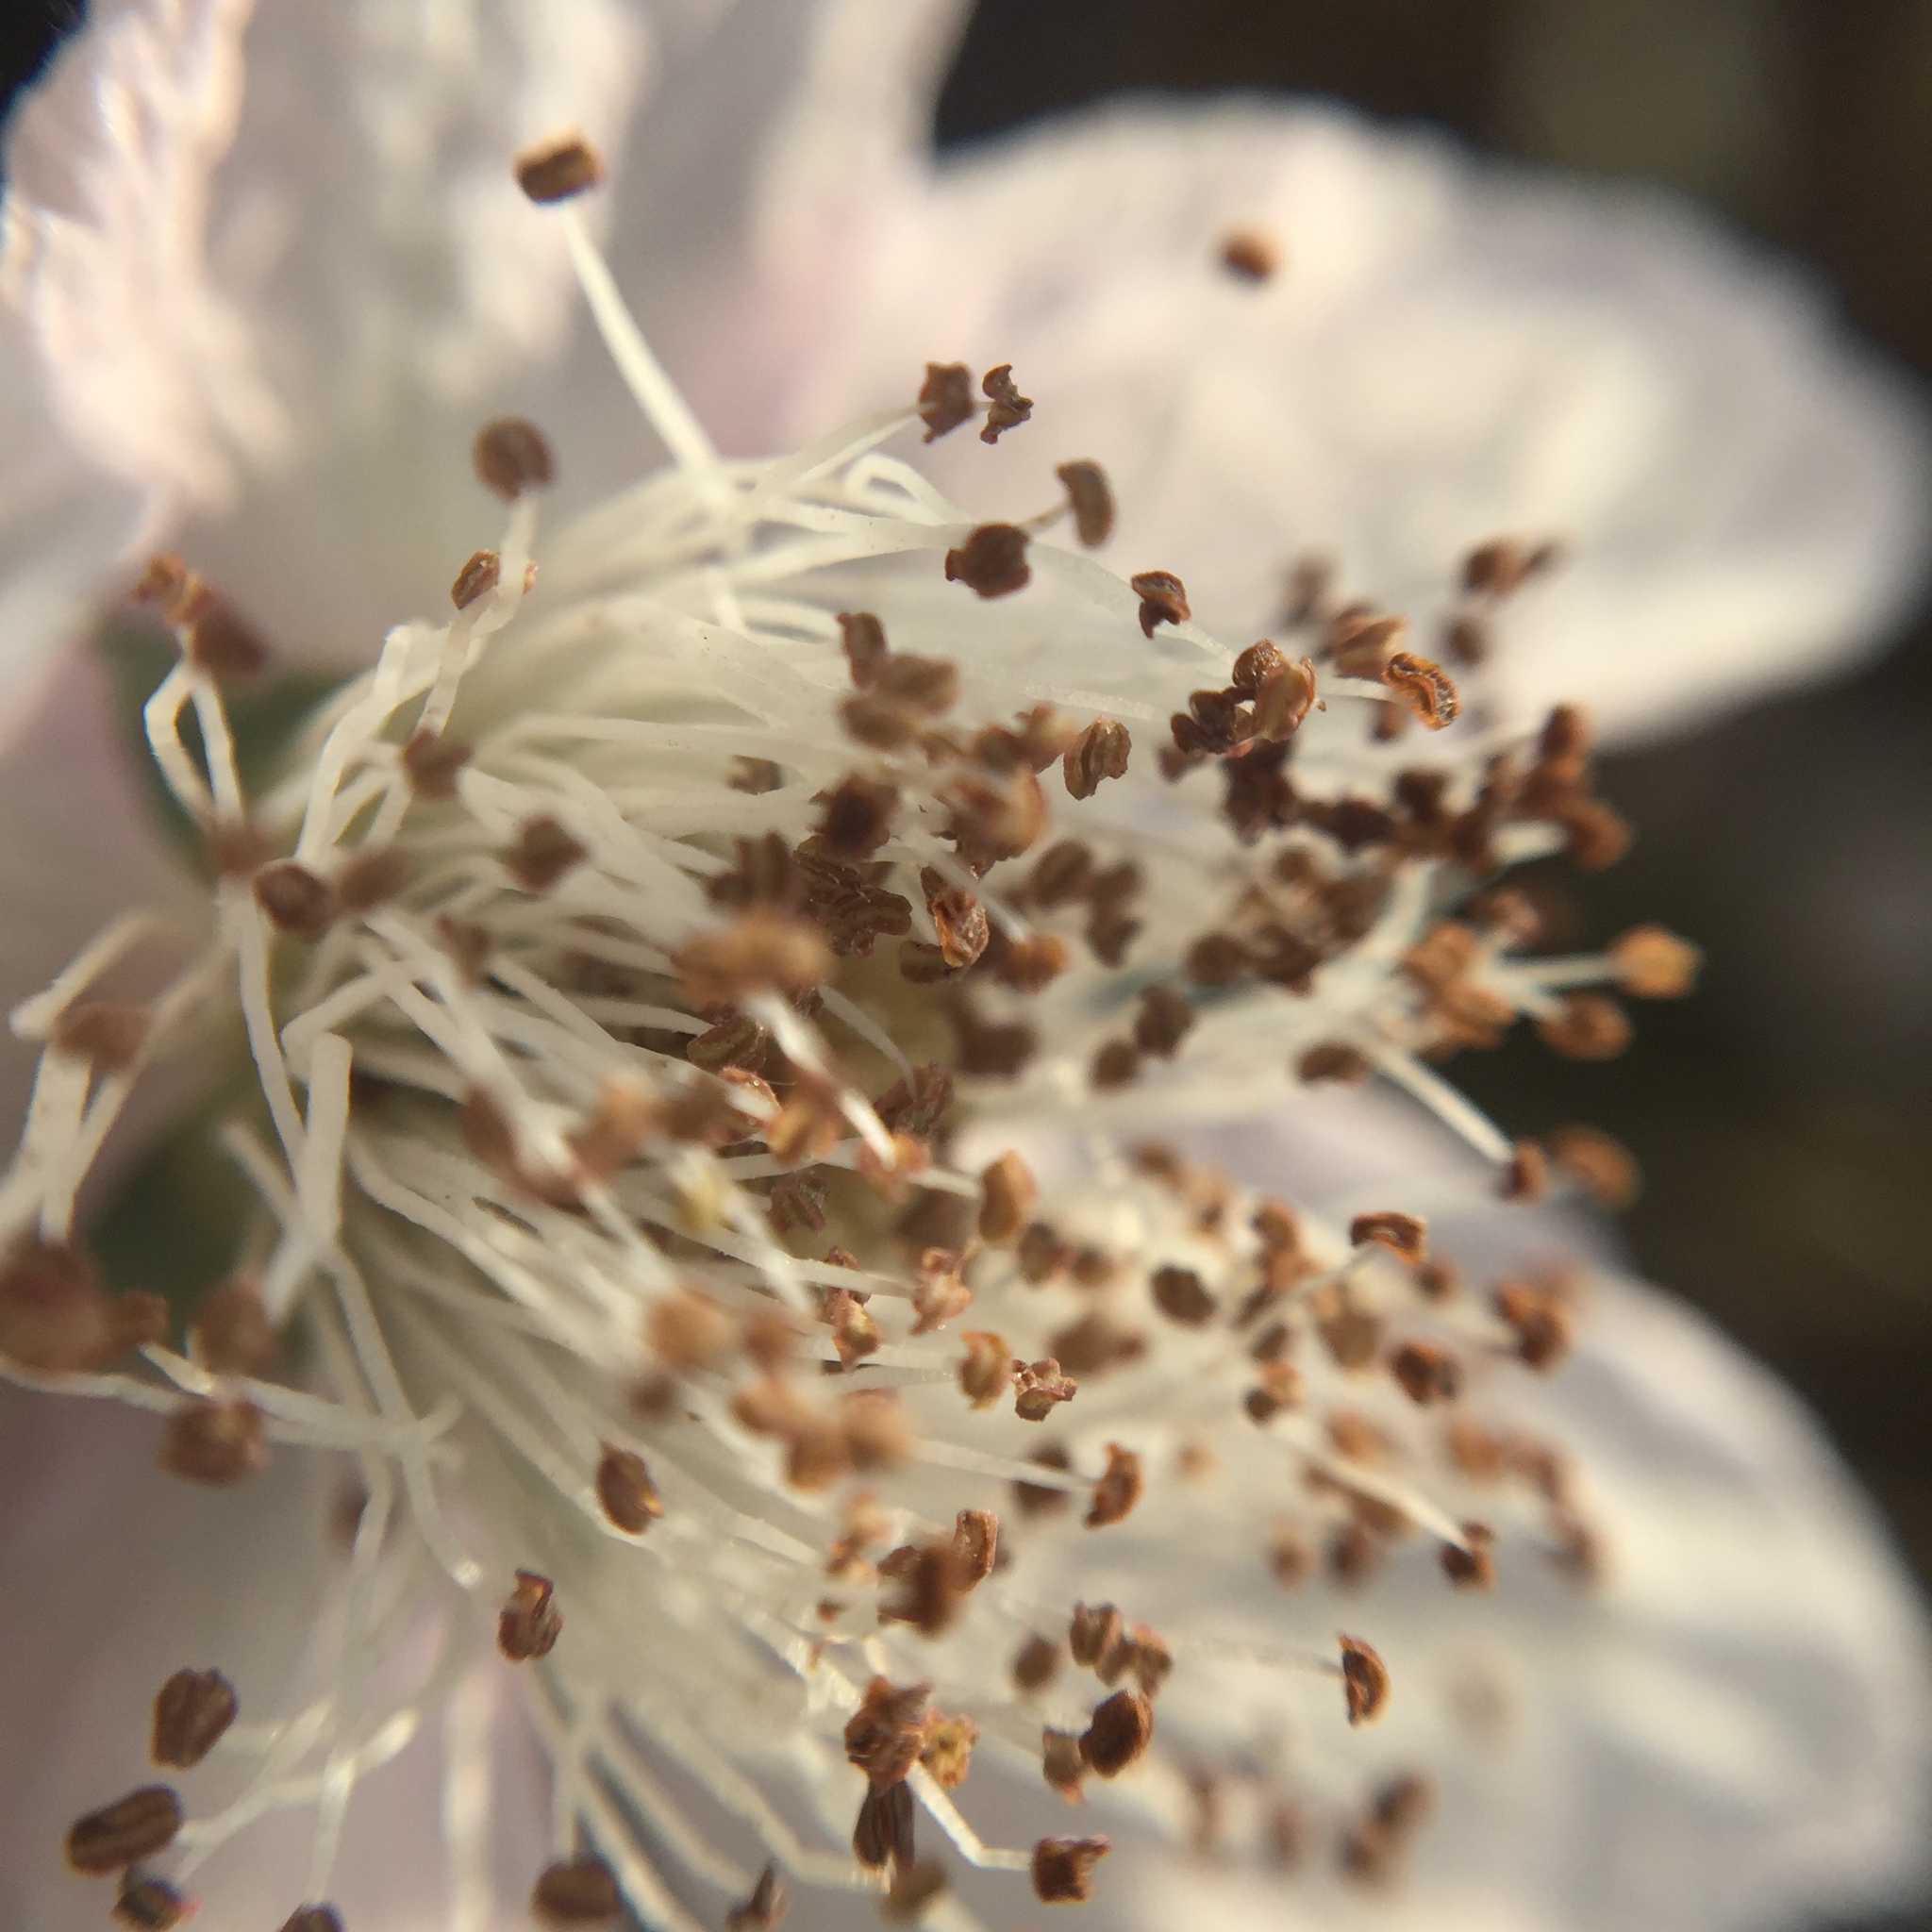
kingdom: Plantae
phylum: Tracheophyta
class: Magnoliopsida
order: Rosales
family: Rosaceae
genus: Rubus
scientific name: Rubus armeniacus
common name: Himalayan blackberry
